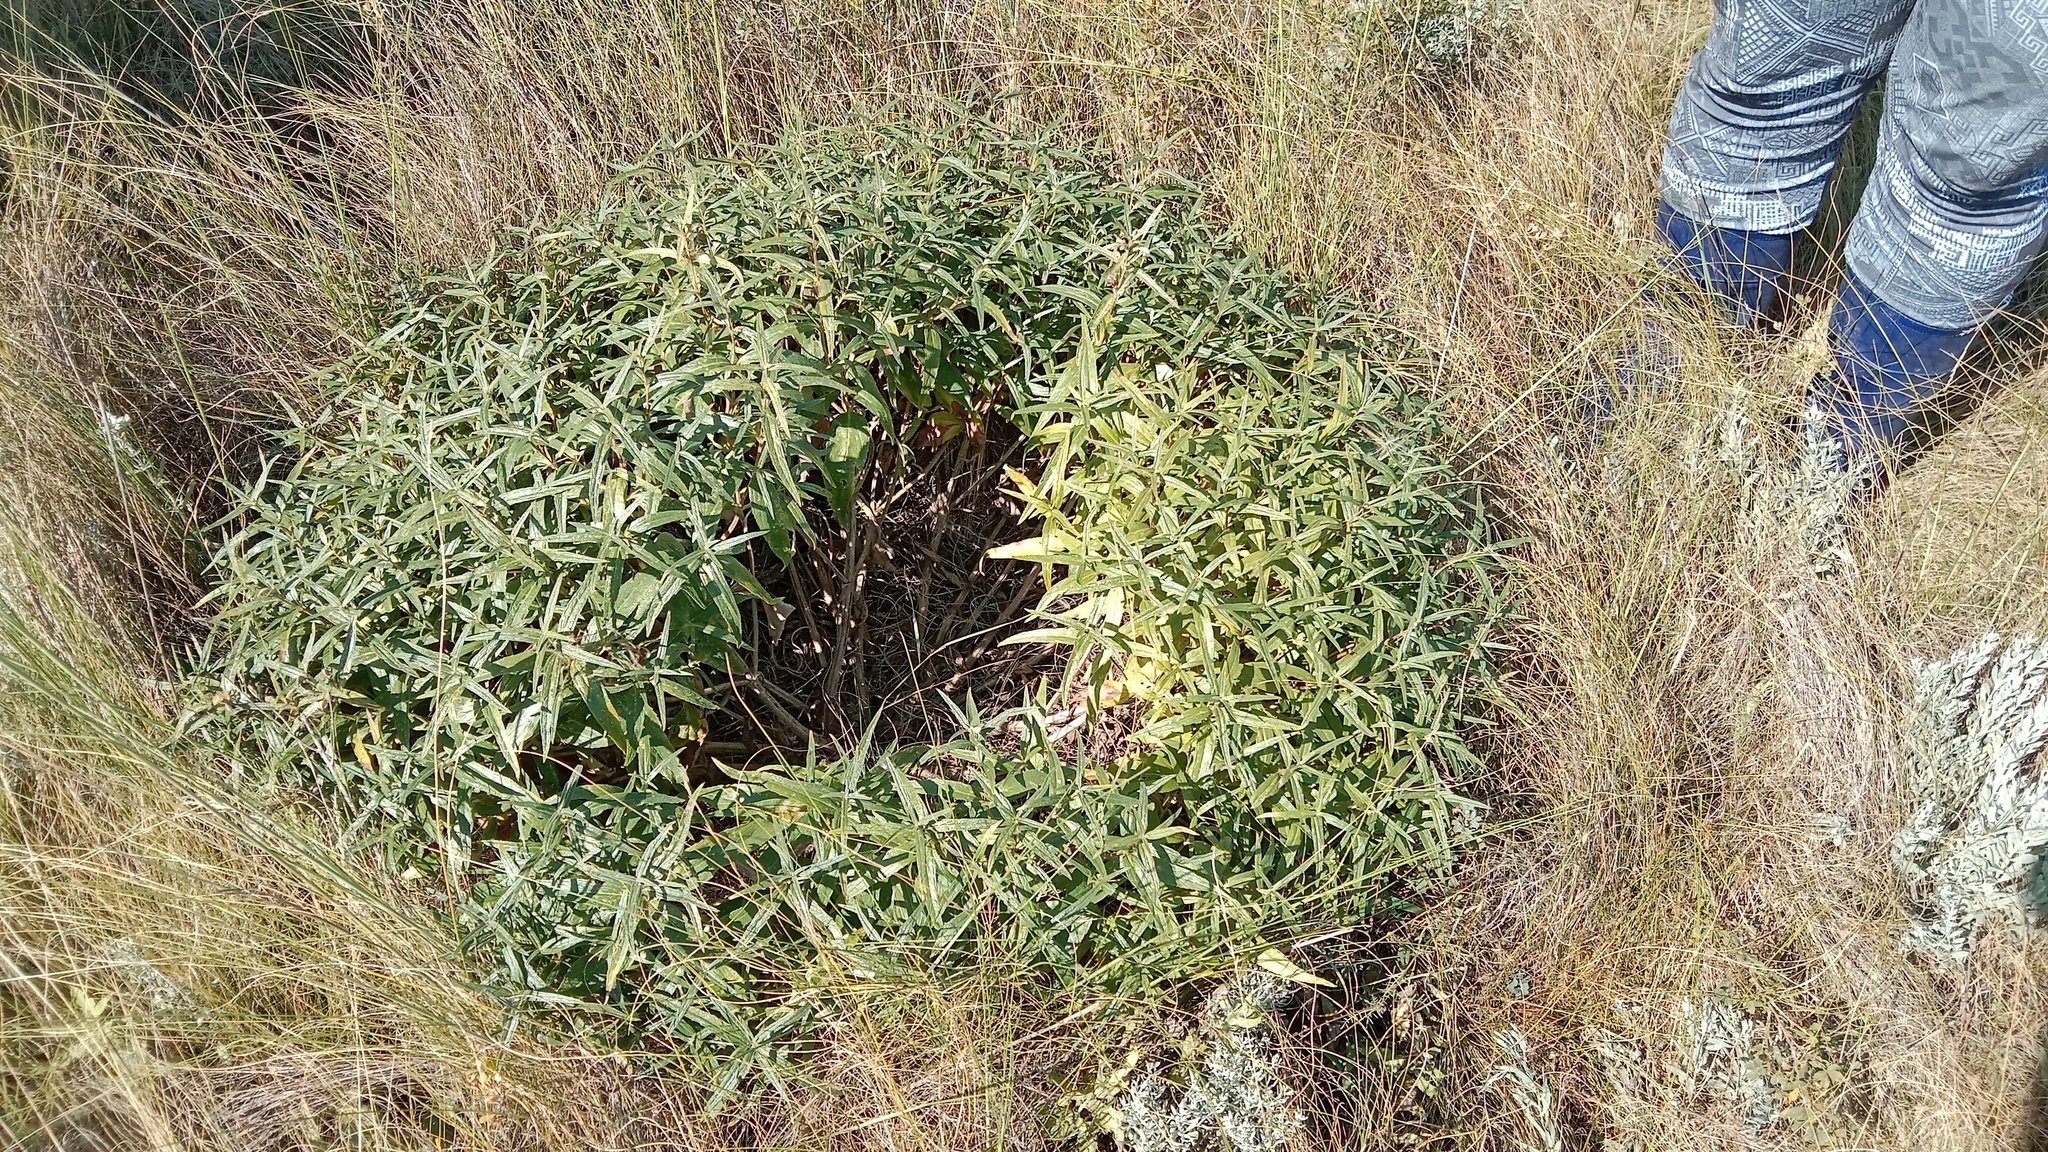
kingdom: Plantae
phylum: Tracheophyta
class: Magnoliopsida
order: Lamiales
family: Lamiaceae
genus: Phlomis
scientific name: Phlomis herba-venti
